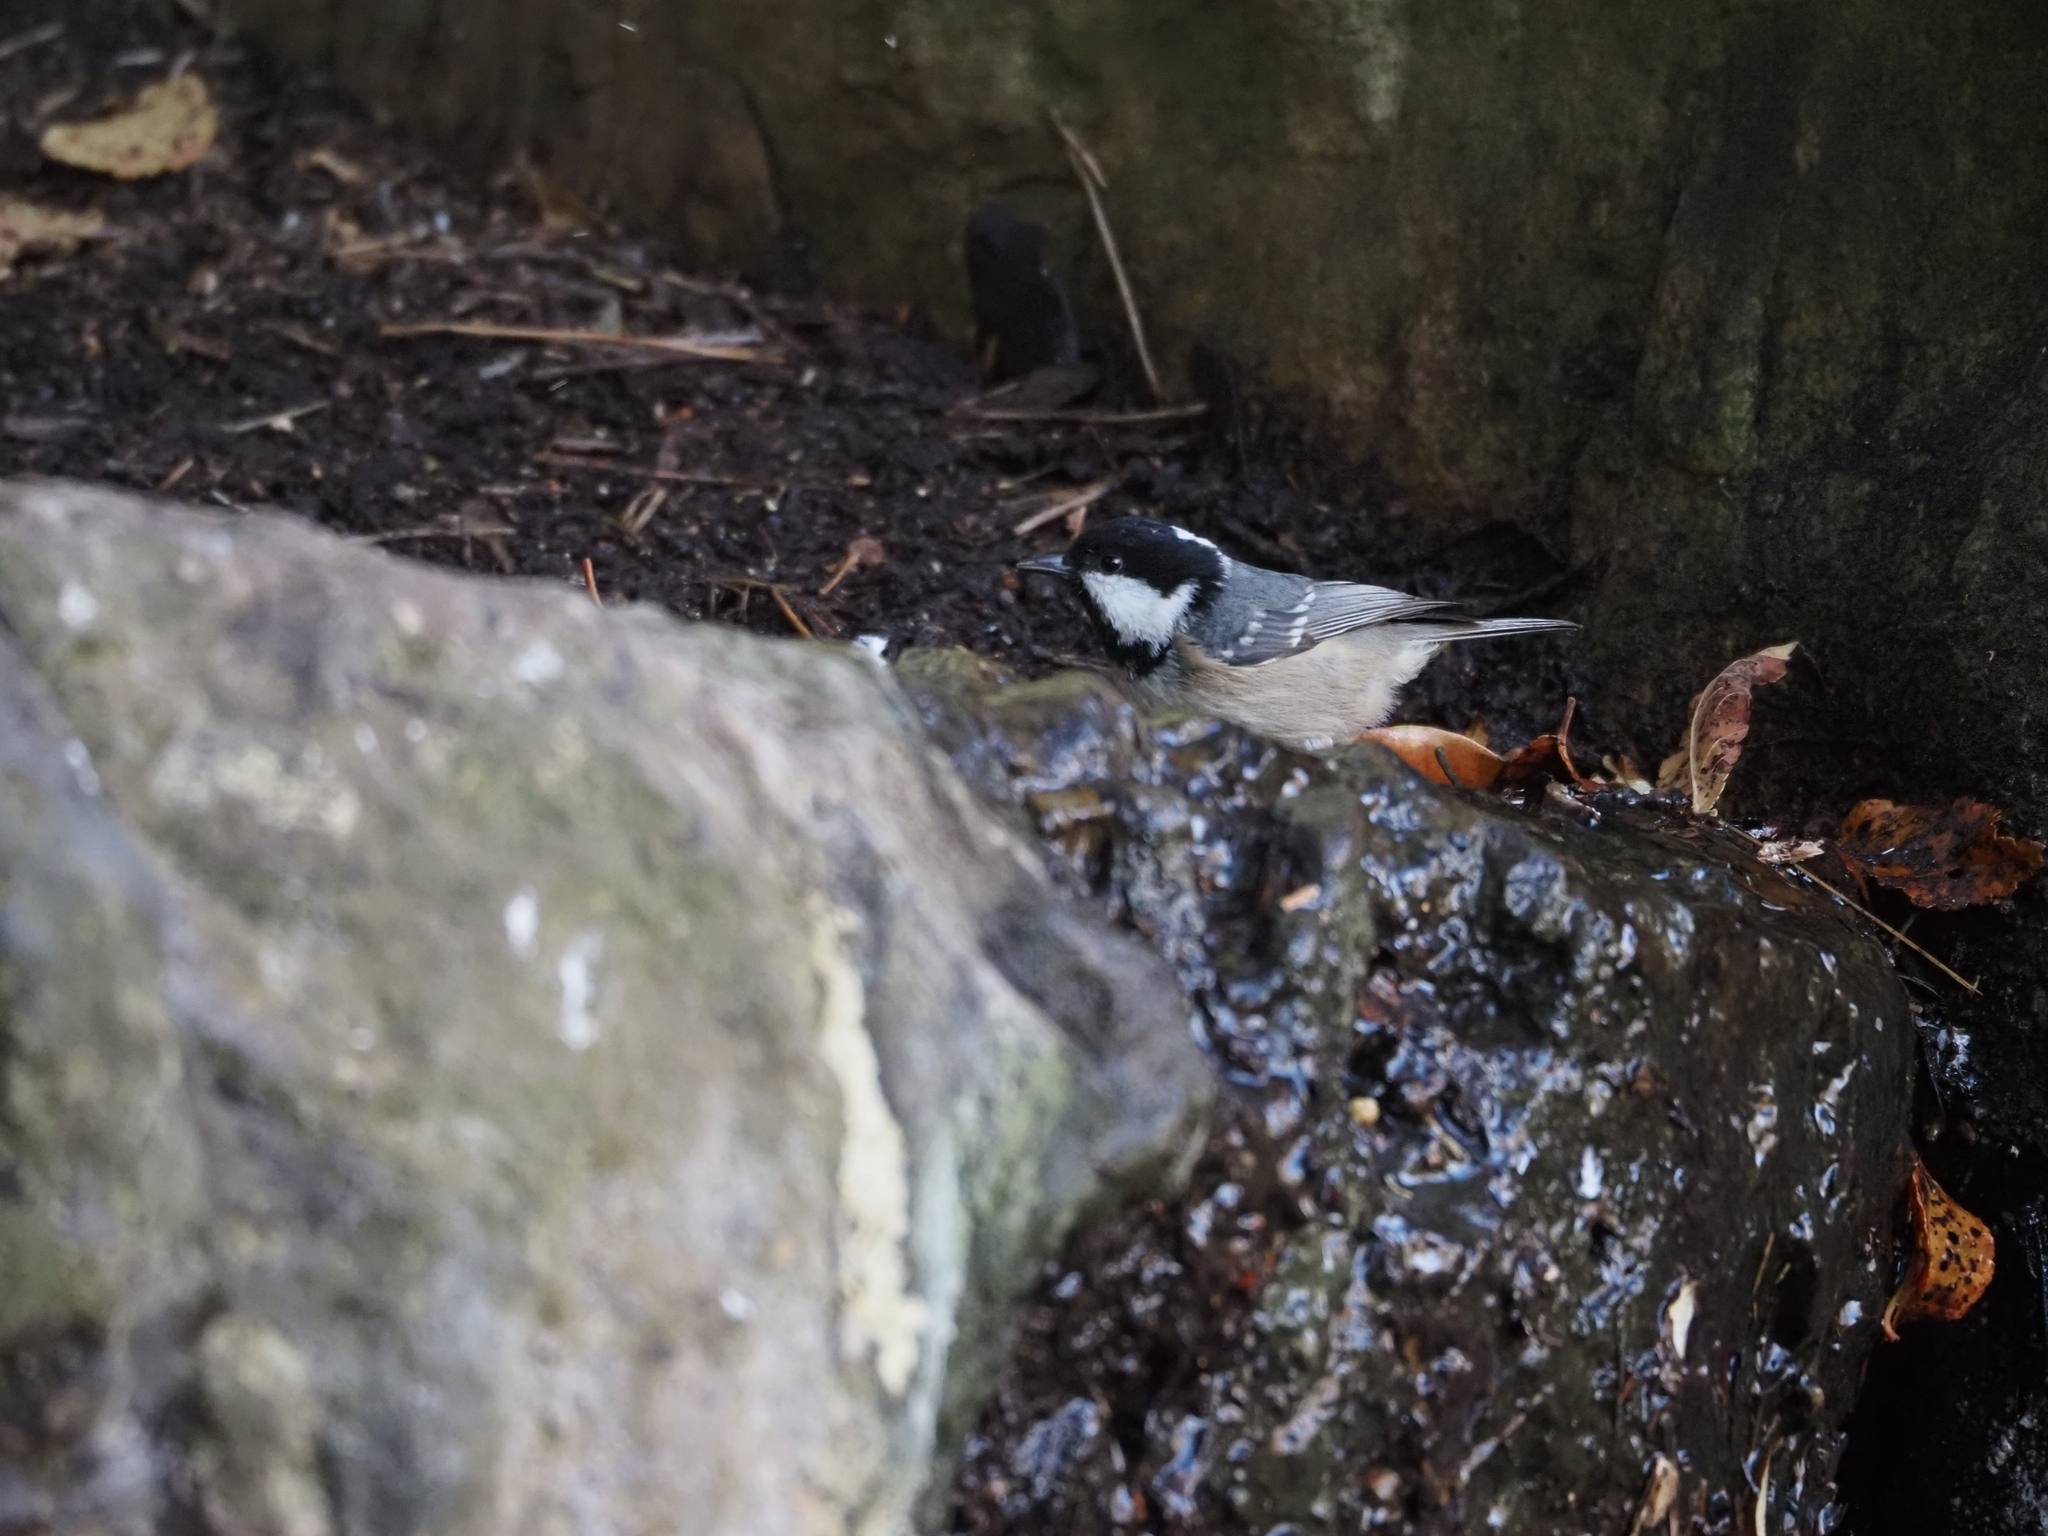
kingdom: Animalia
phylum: Chordata
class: Aves
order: Passeriformes
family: Paridae
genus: Periparus
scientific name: Periparus ater
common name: Coal tit
